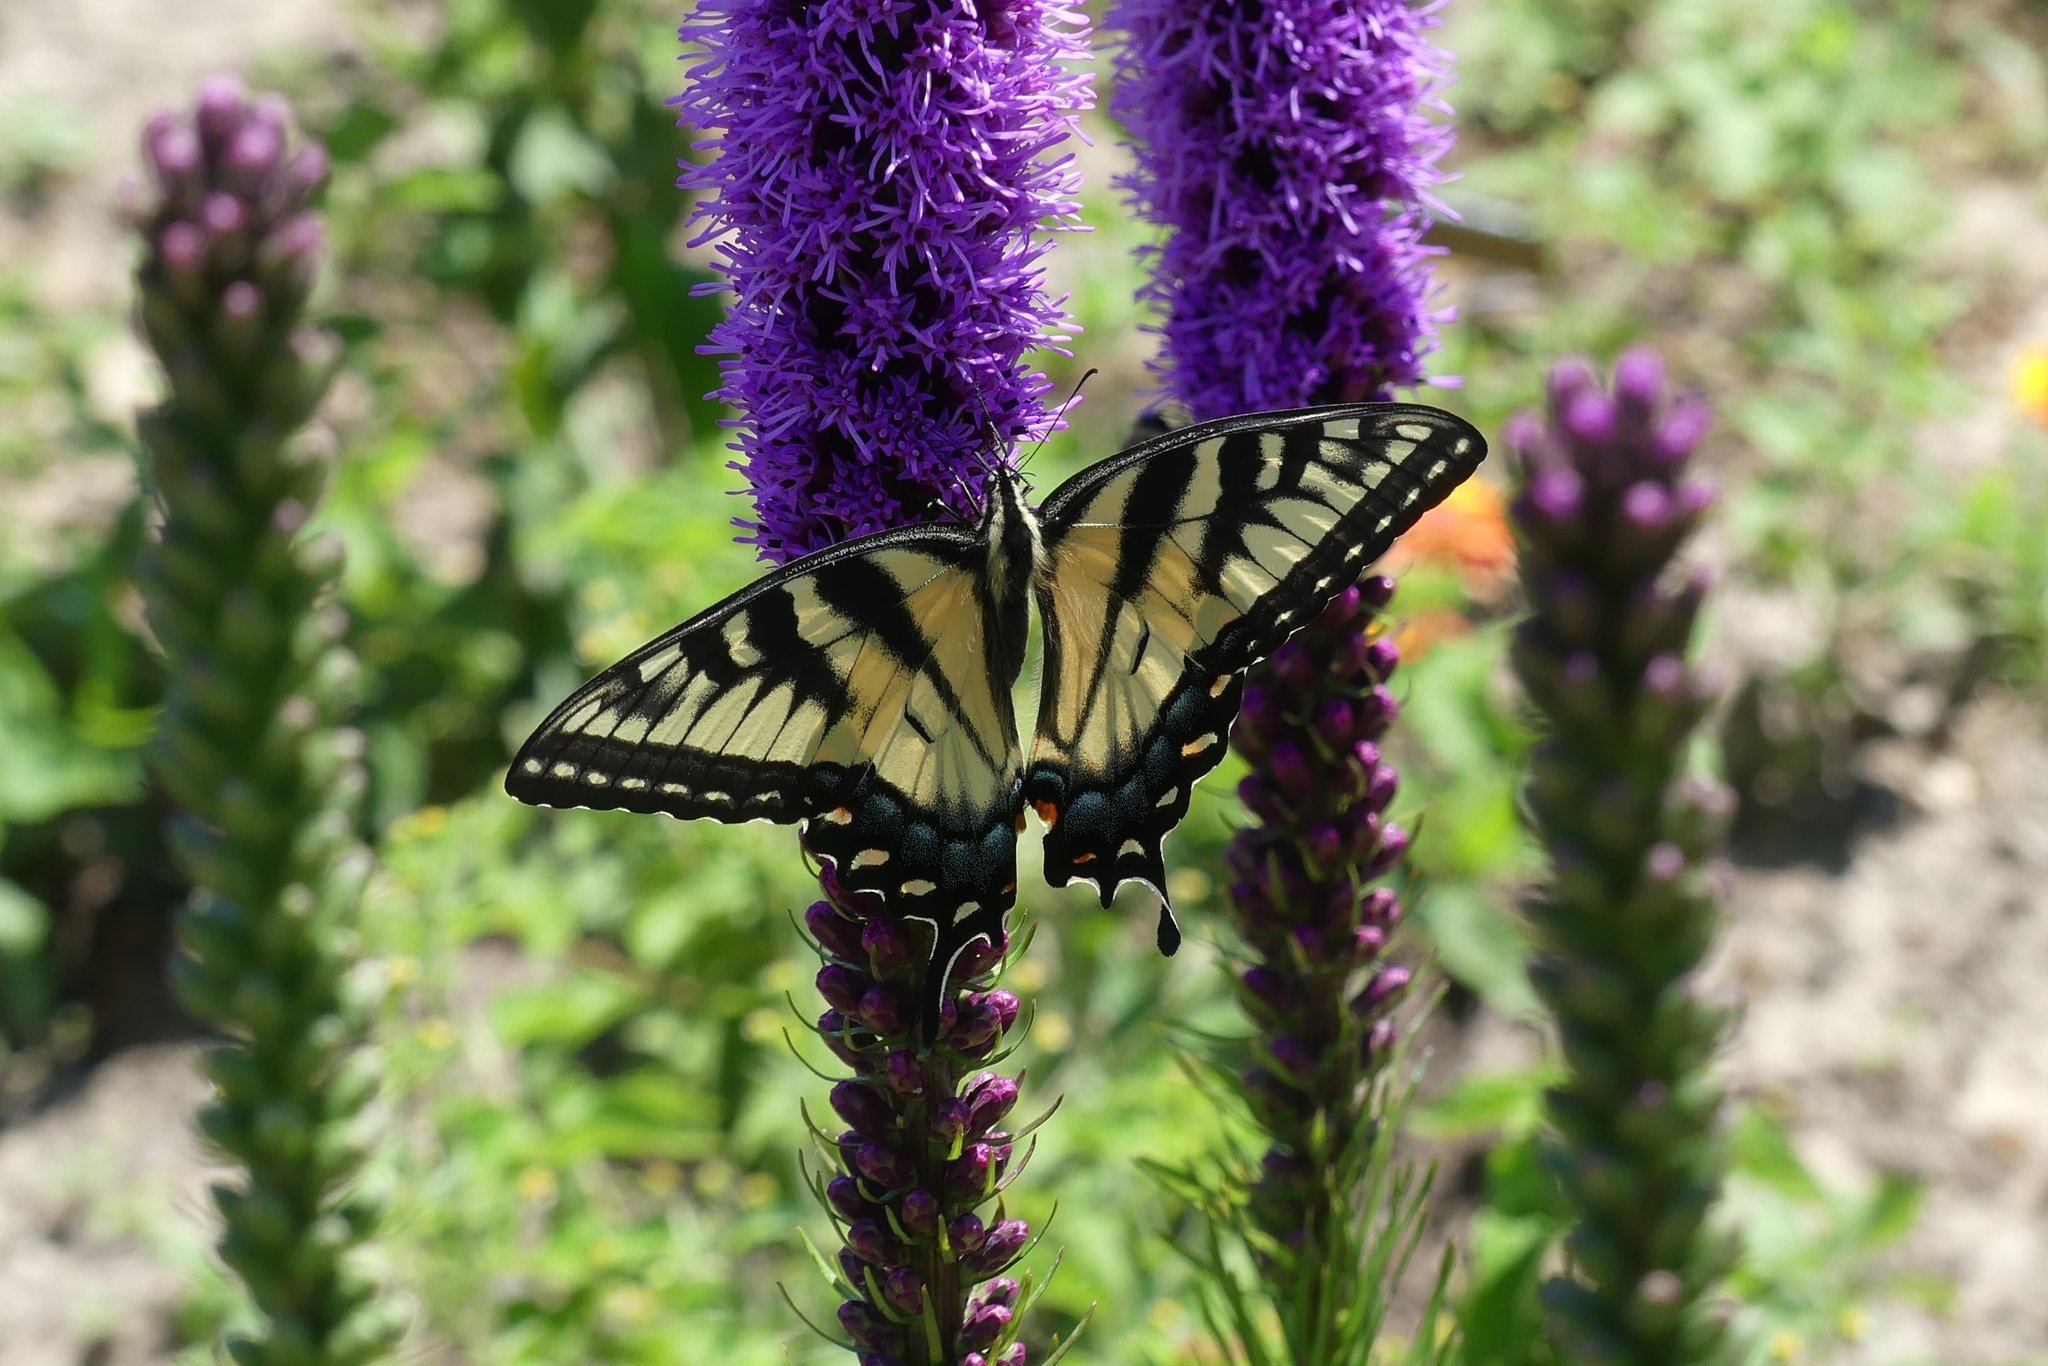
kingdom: Animalia
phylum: Arthropoda
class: Insecta
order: Lepidoptera
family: Papilionidae
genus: Papilio
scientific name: Papilio glaucus
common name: Tiger swallowtail
